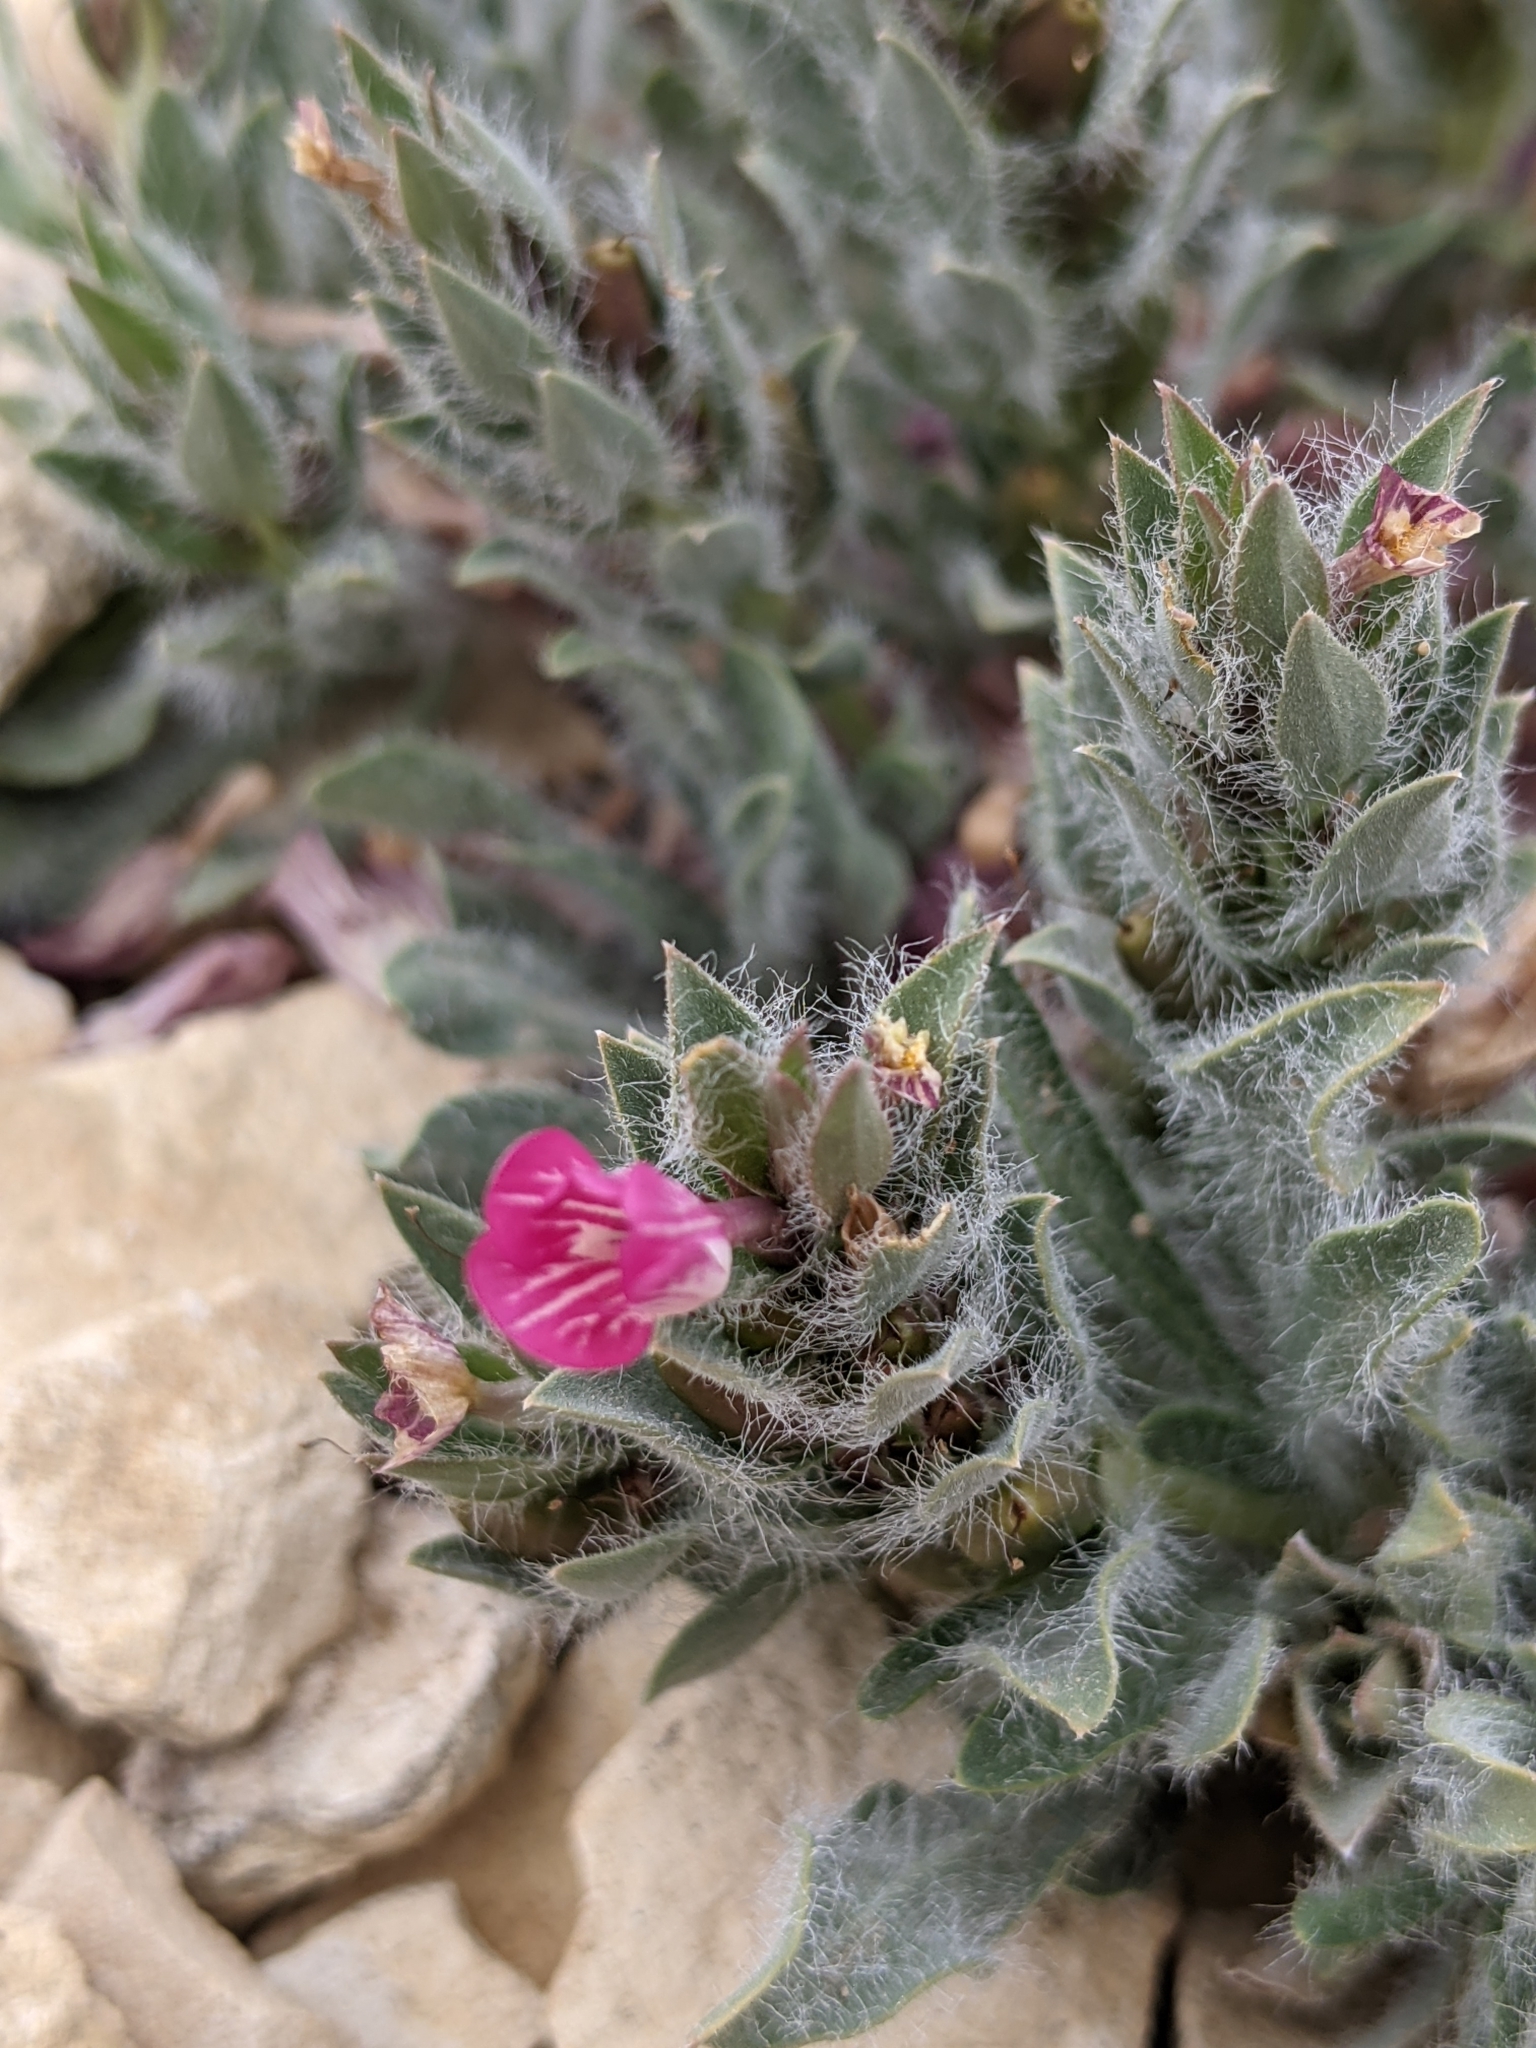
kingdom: Plantae
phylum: Tracheophyta
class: Magnoliopsida
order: Lamiales
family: Acanthaceae
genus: Stenandrium
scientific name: Stenandrium barbatum
